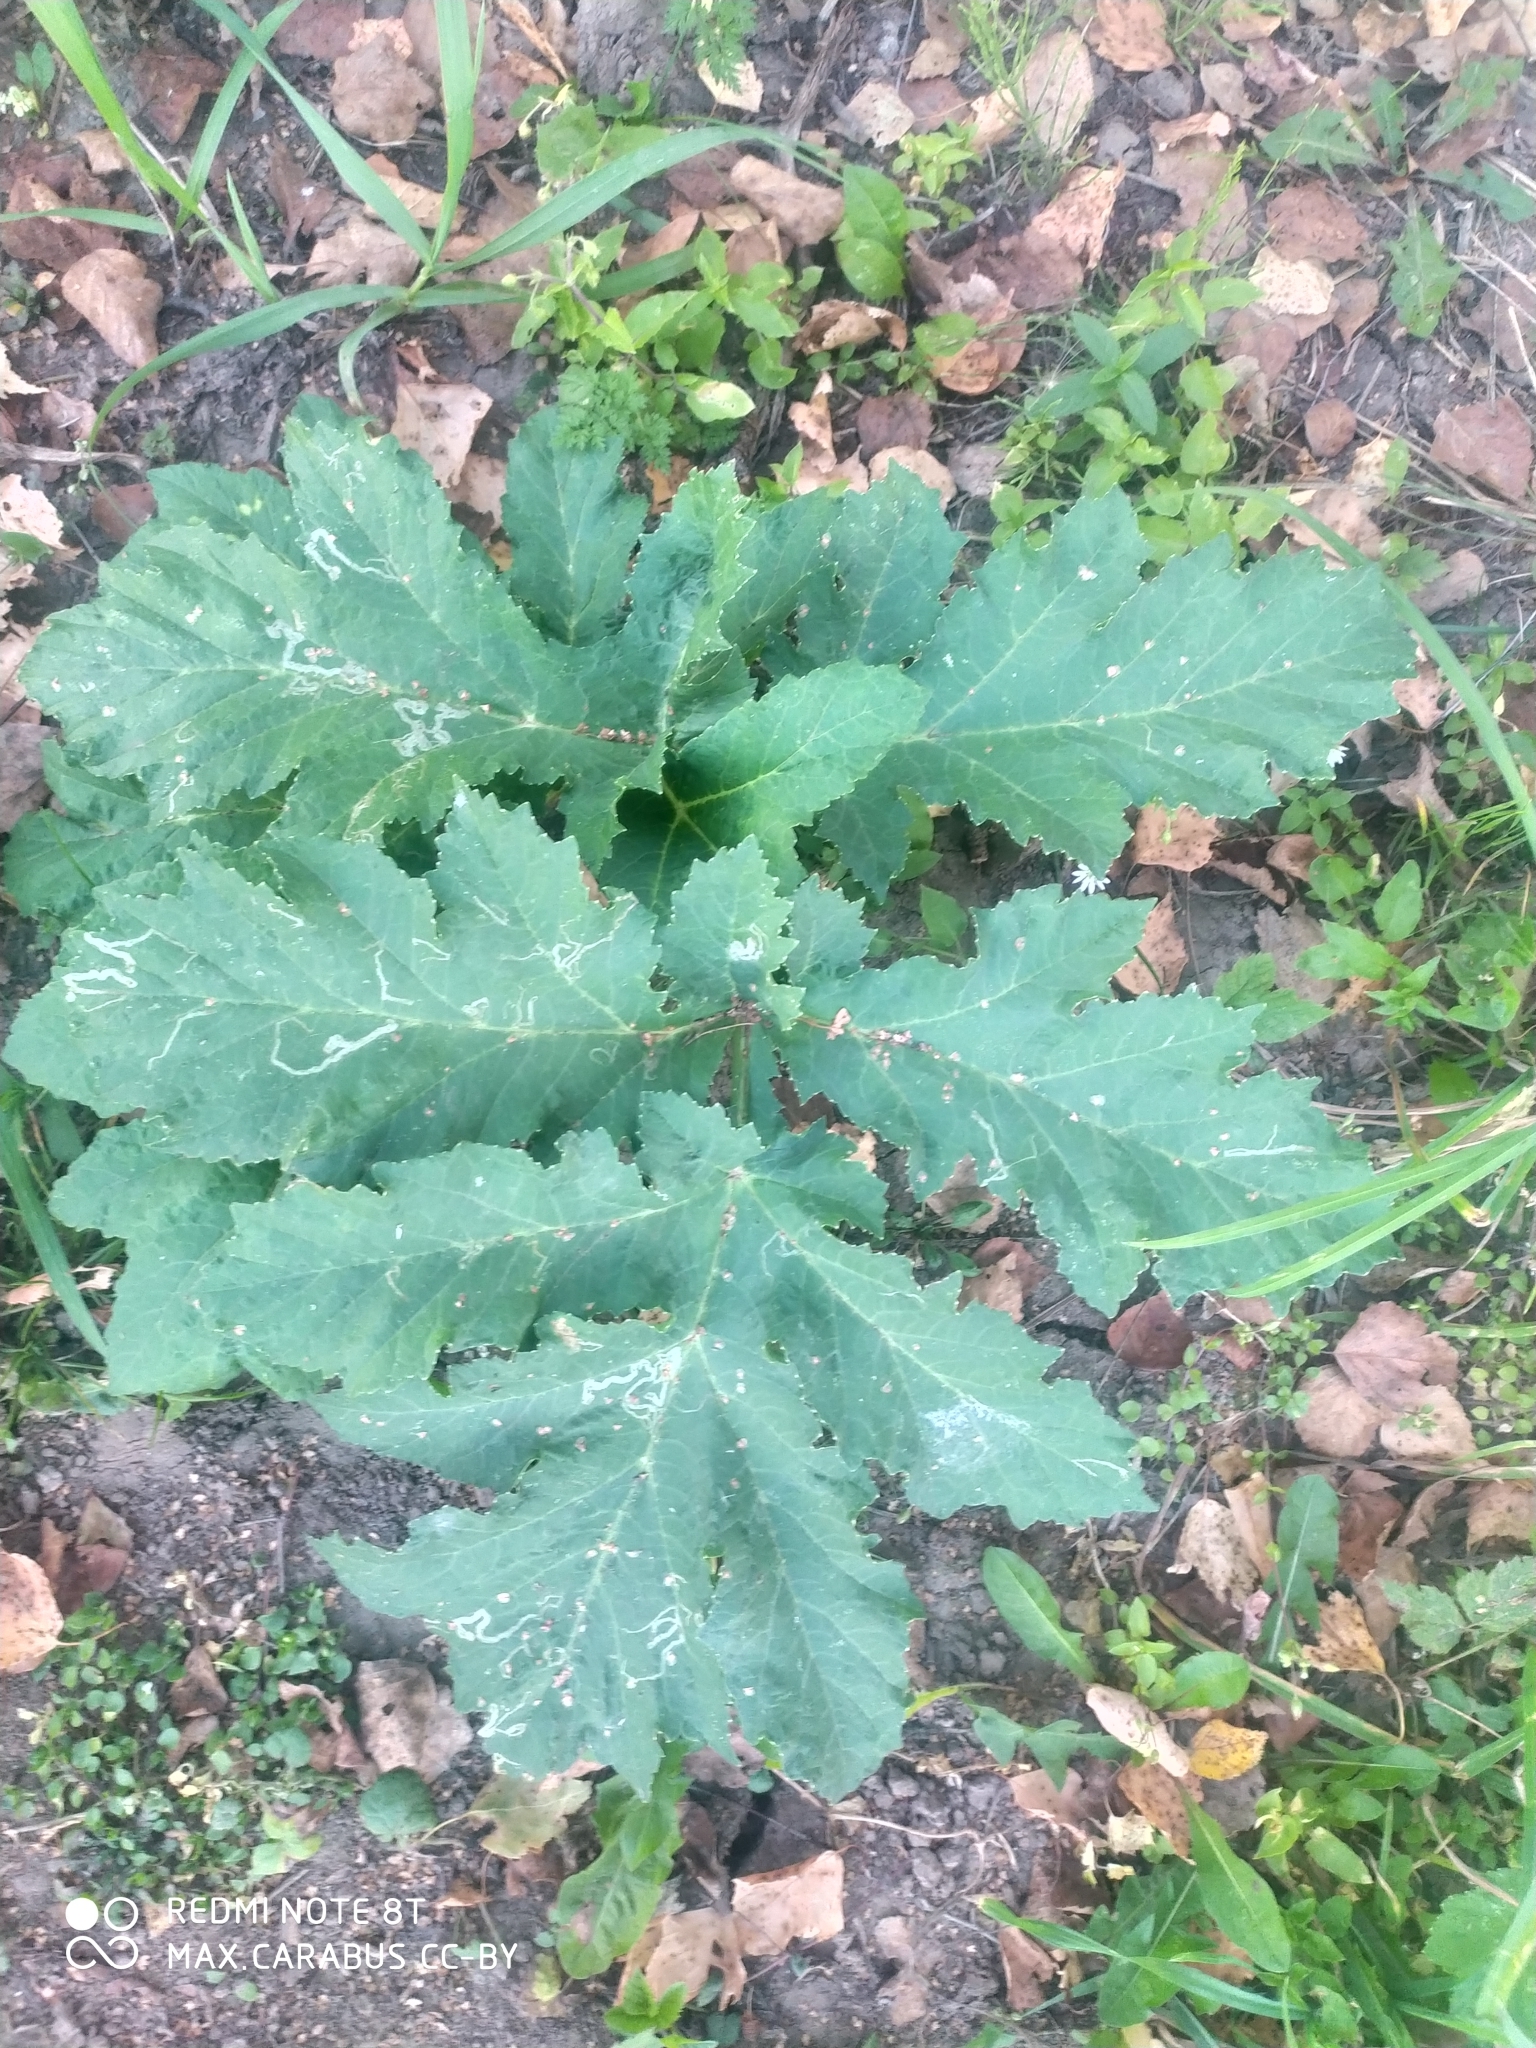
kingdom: Plantae
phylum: Tracheophyta
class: Magnoliopsida
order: Apiales
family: Apiaceae
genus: Heracleum
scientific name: Heracleum sosnowskyi
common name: Sosnowsky's hogweed
